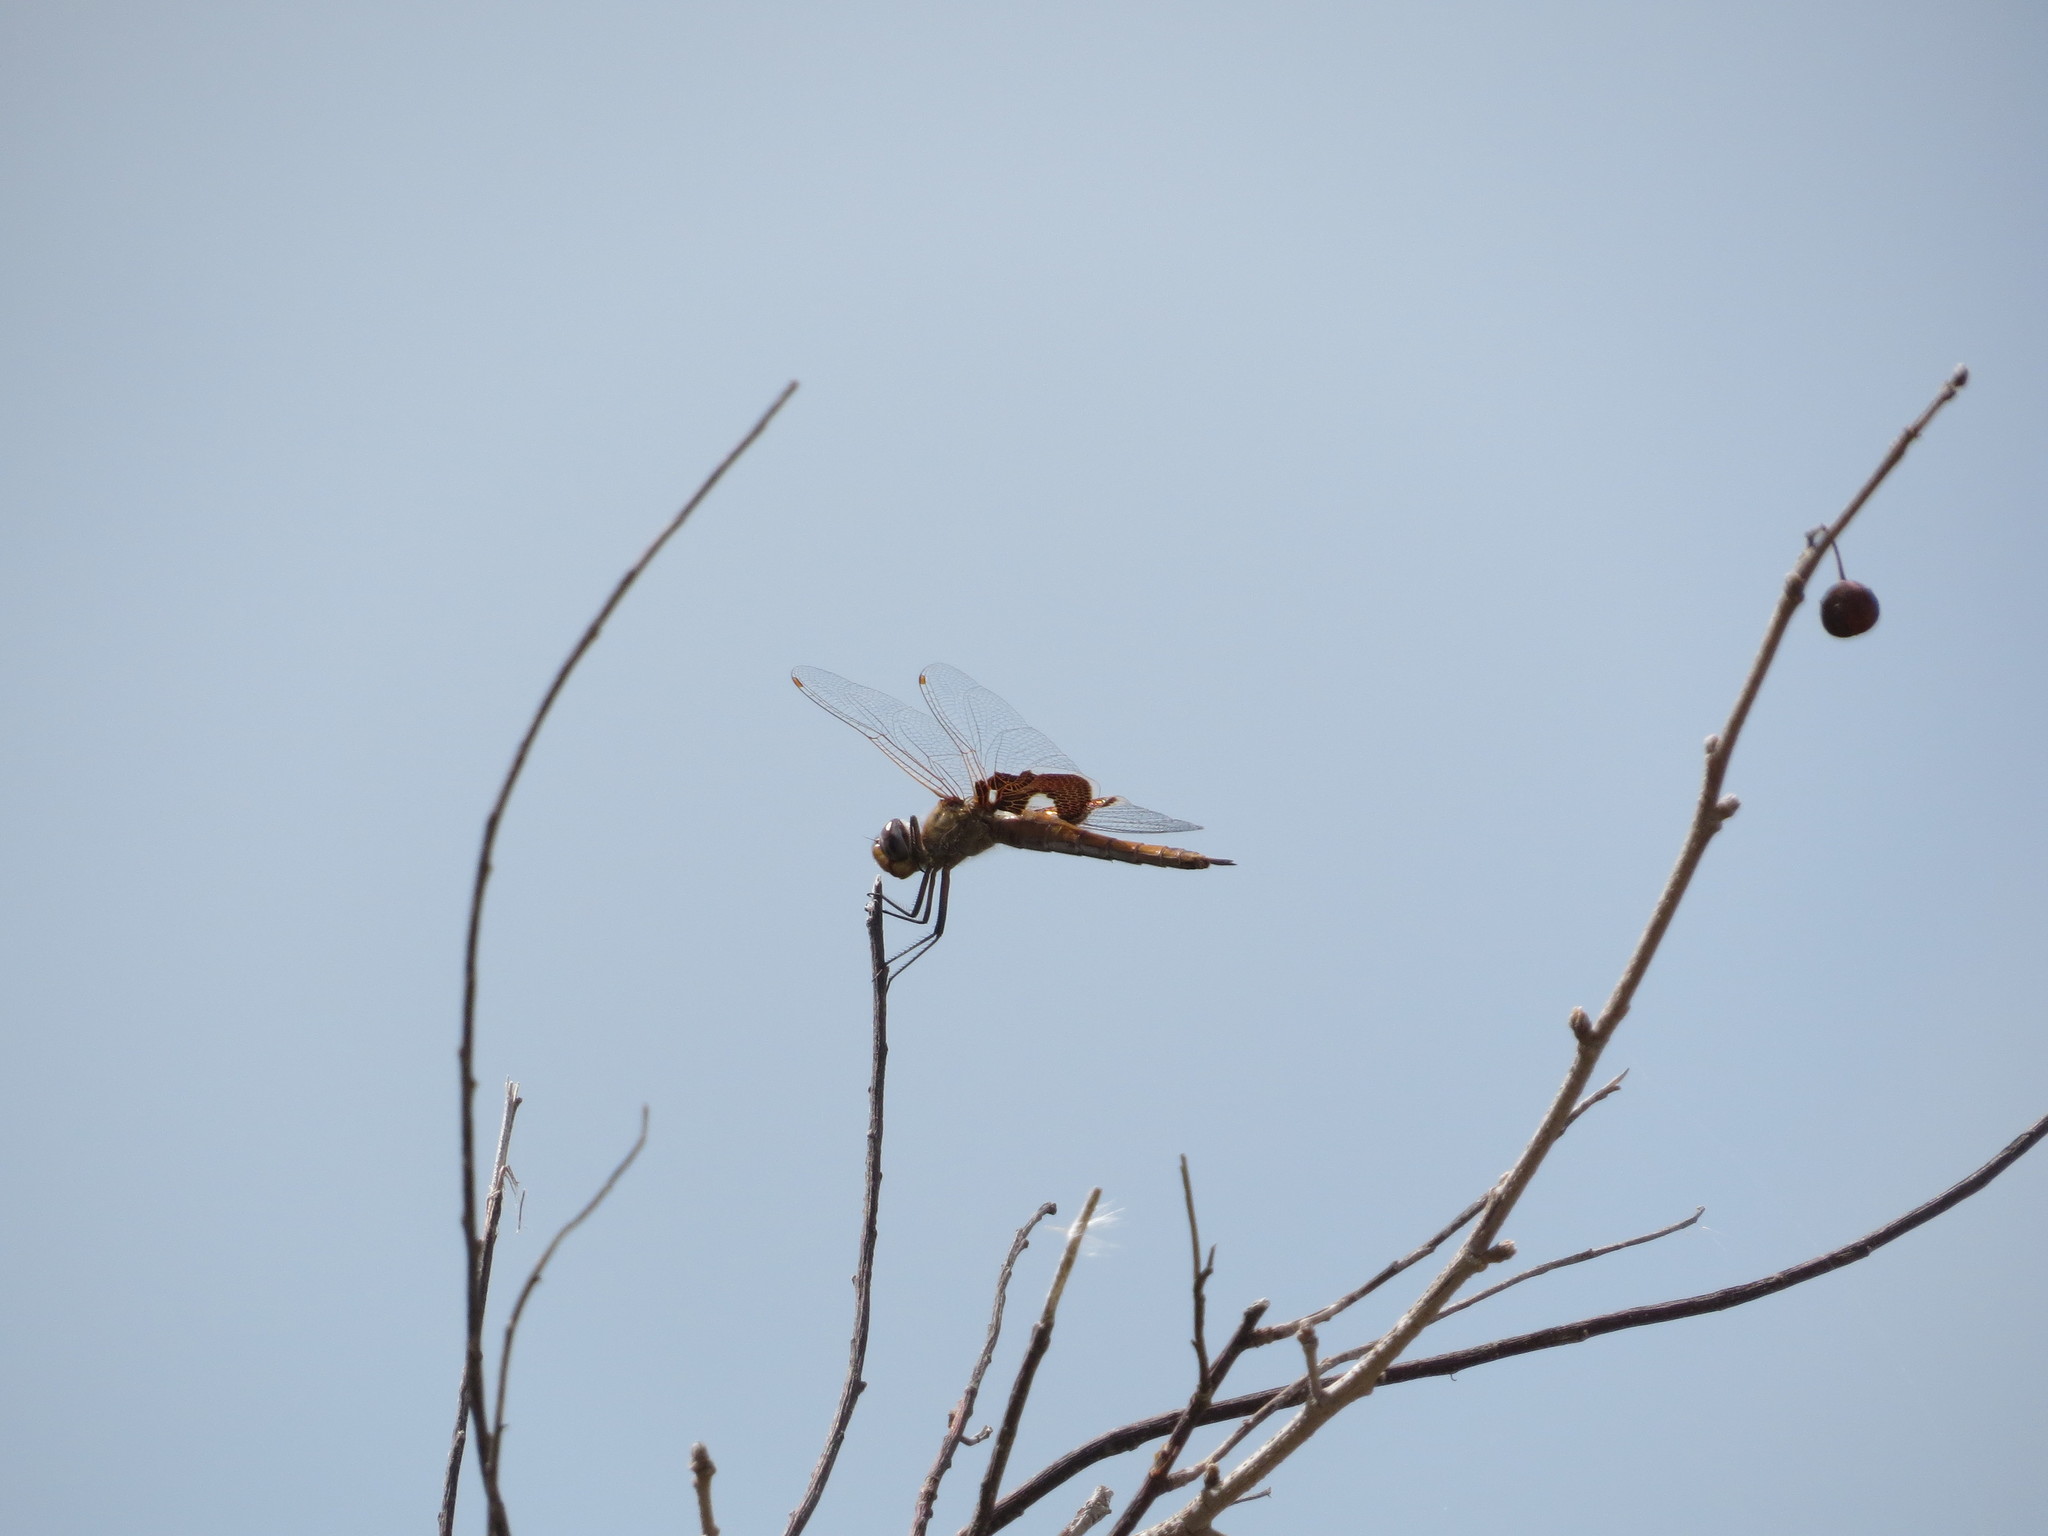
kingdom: Animalia
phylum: Arthropoda
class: Insecta
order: Odonata
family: Libellulidae
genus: Tramea
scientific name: Tramea onusta
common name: Red saddlebags
